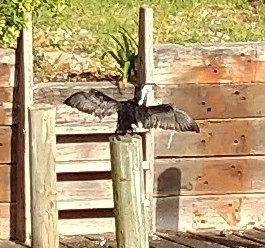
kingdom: Animalia
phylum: Chordata
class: Aves
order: Suliformes
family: Phalacrocoracidae
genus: Microcarbo
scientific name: Microcarbo melanoleucos
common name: Little pied cormorant
